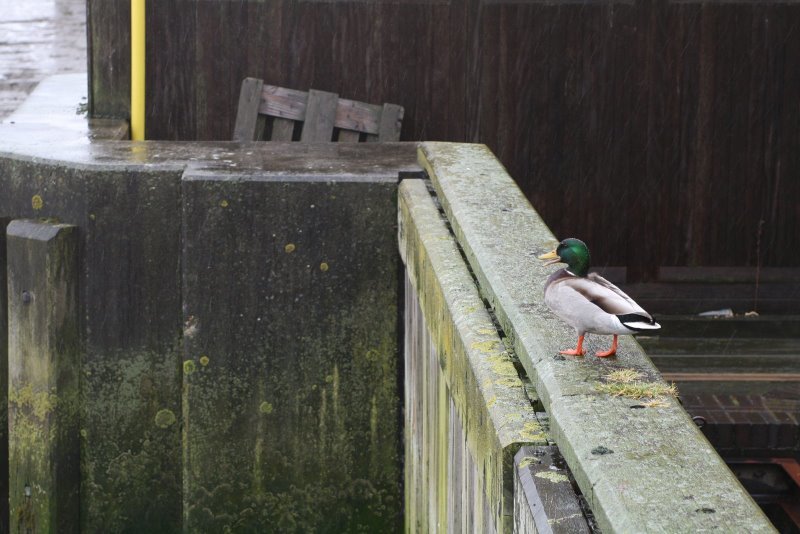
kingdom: Animalia
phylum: Chordata
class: Aves
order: Anseriformes
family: Anatidae
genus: Anas
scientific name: Anas platyrhynchos
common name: Mallard
